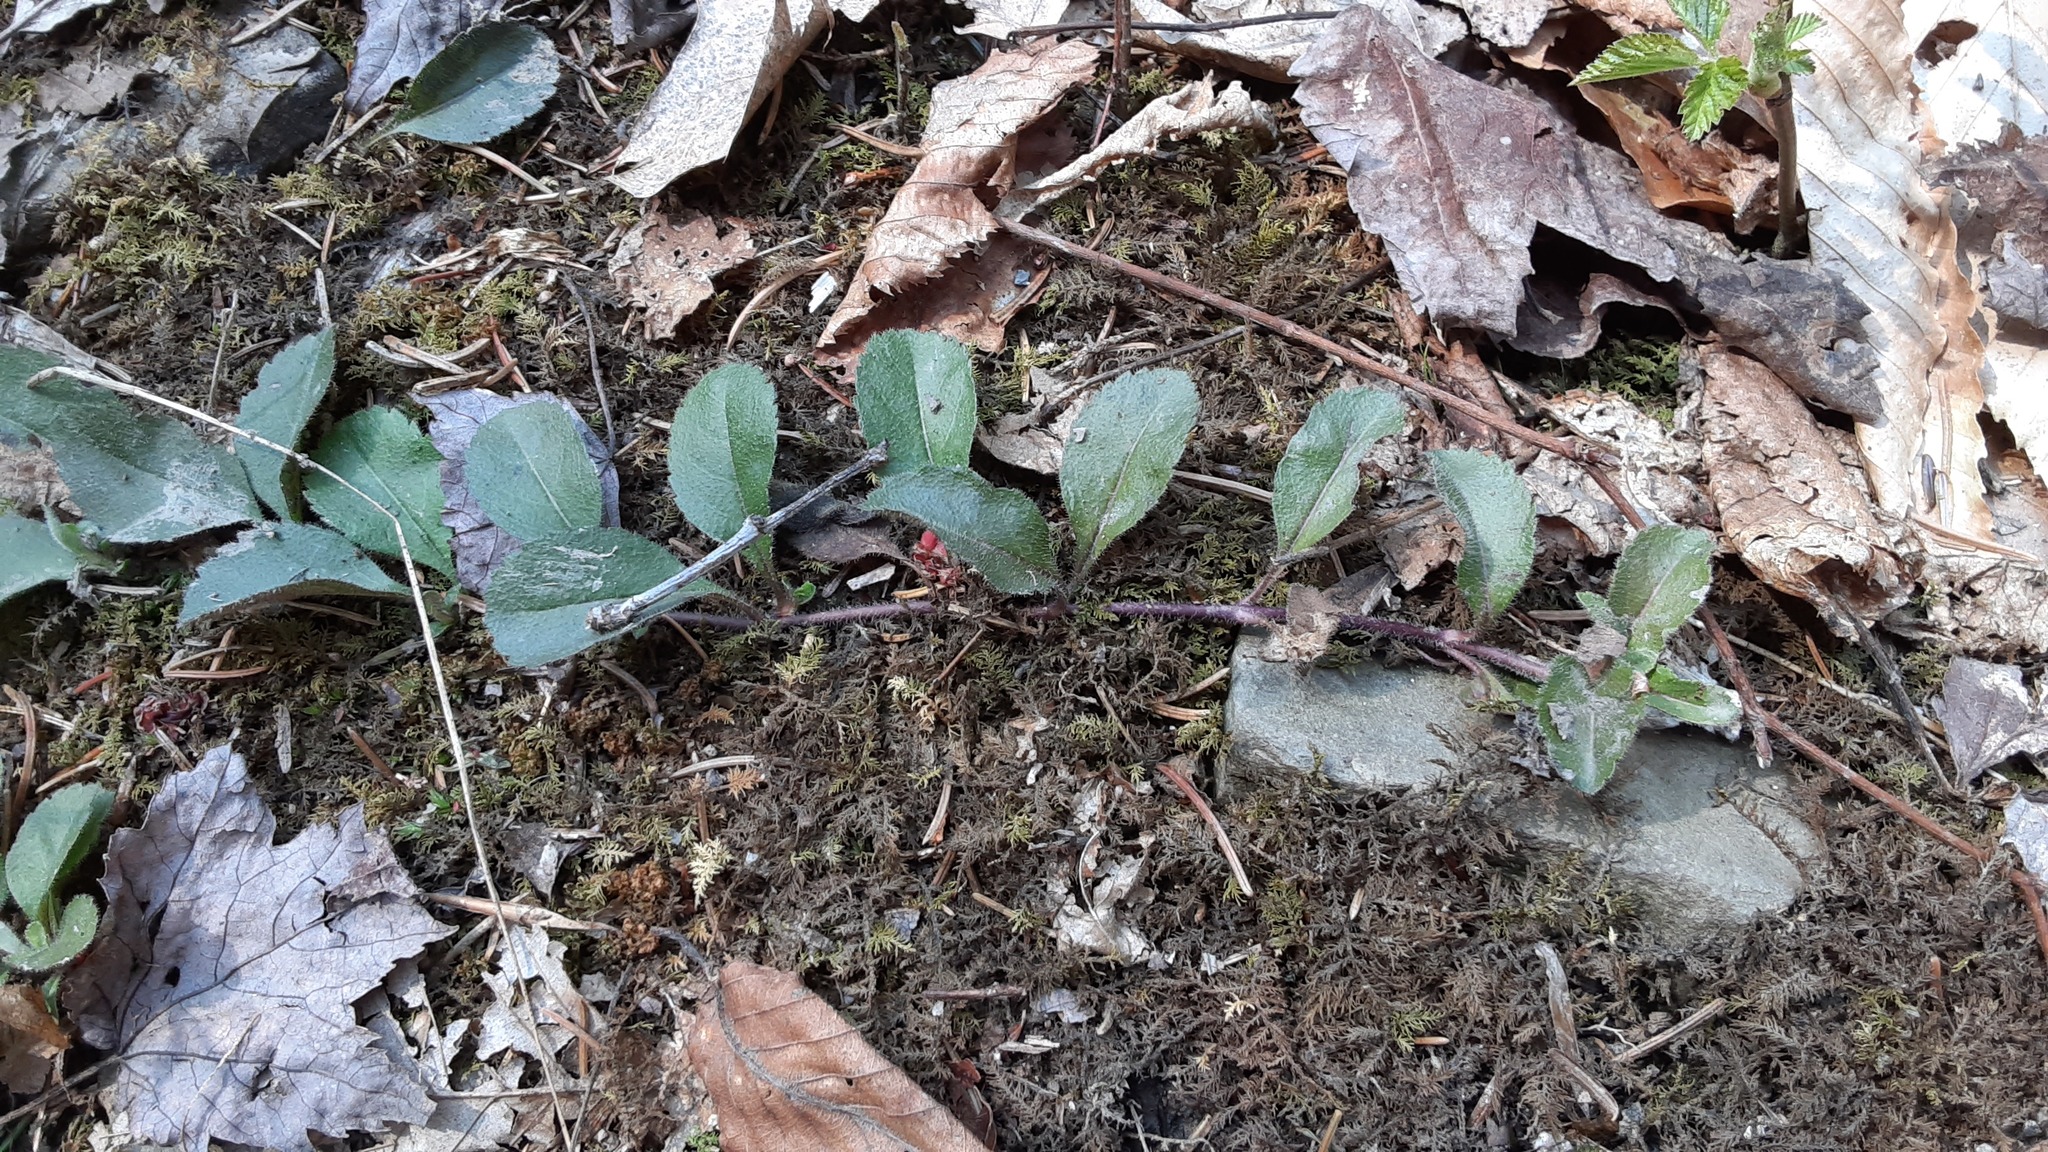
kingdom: Plantae
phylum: Tracheophyta
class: Magnoliopsida
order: Lamiales
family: Plantaginaceae
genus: Veronica
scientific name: Veronica officinalis
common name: Common speedwell
